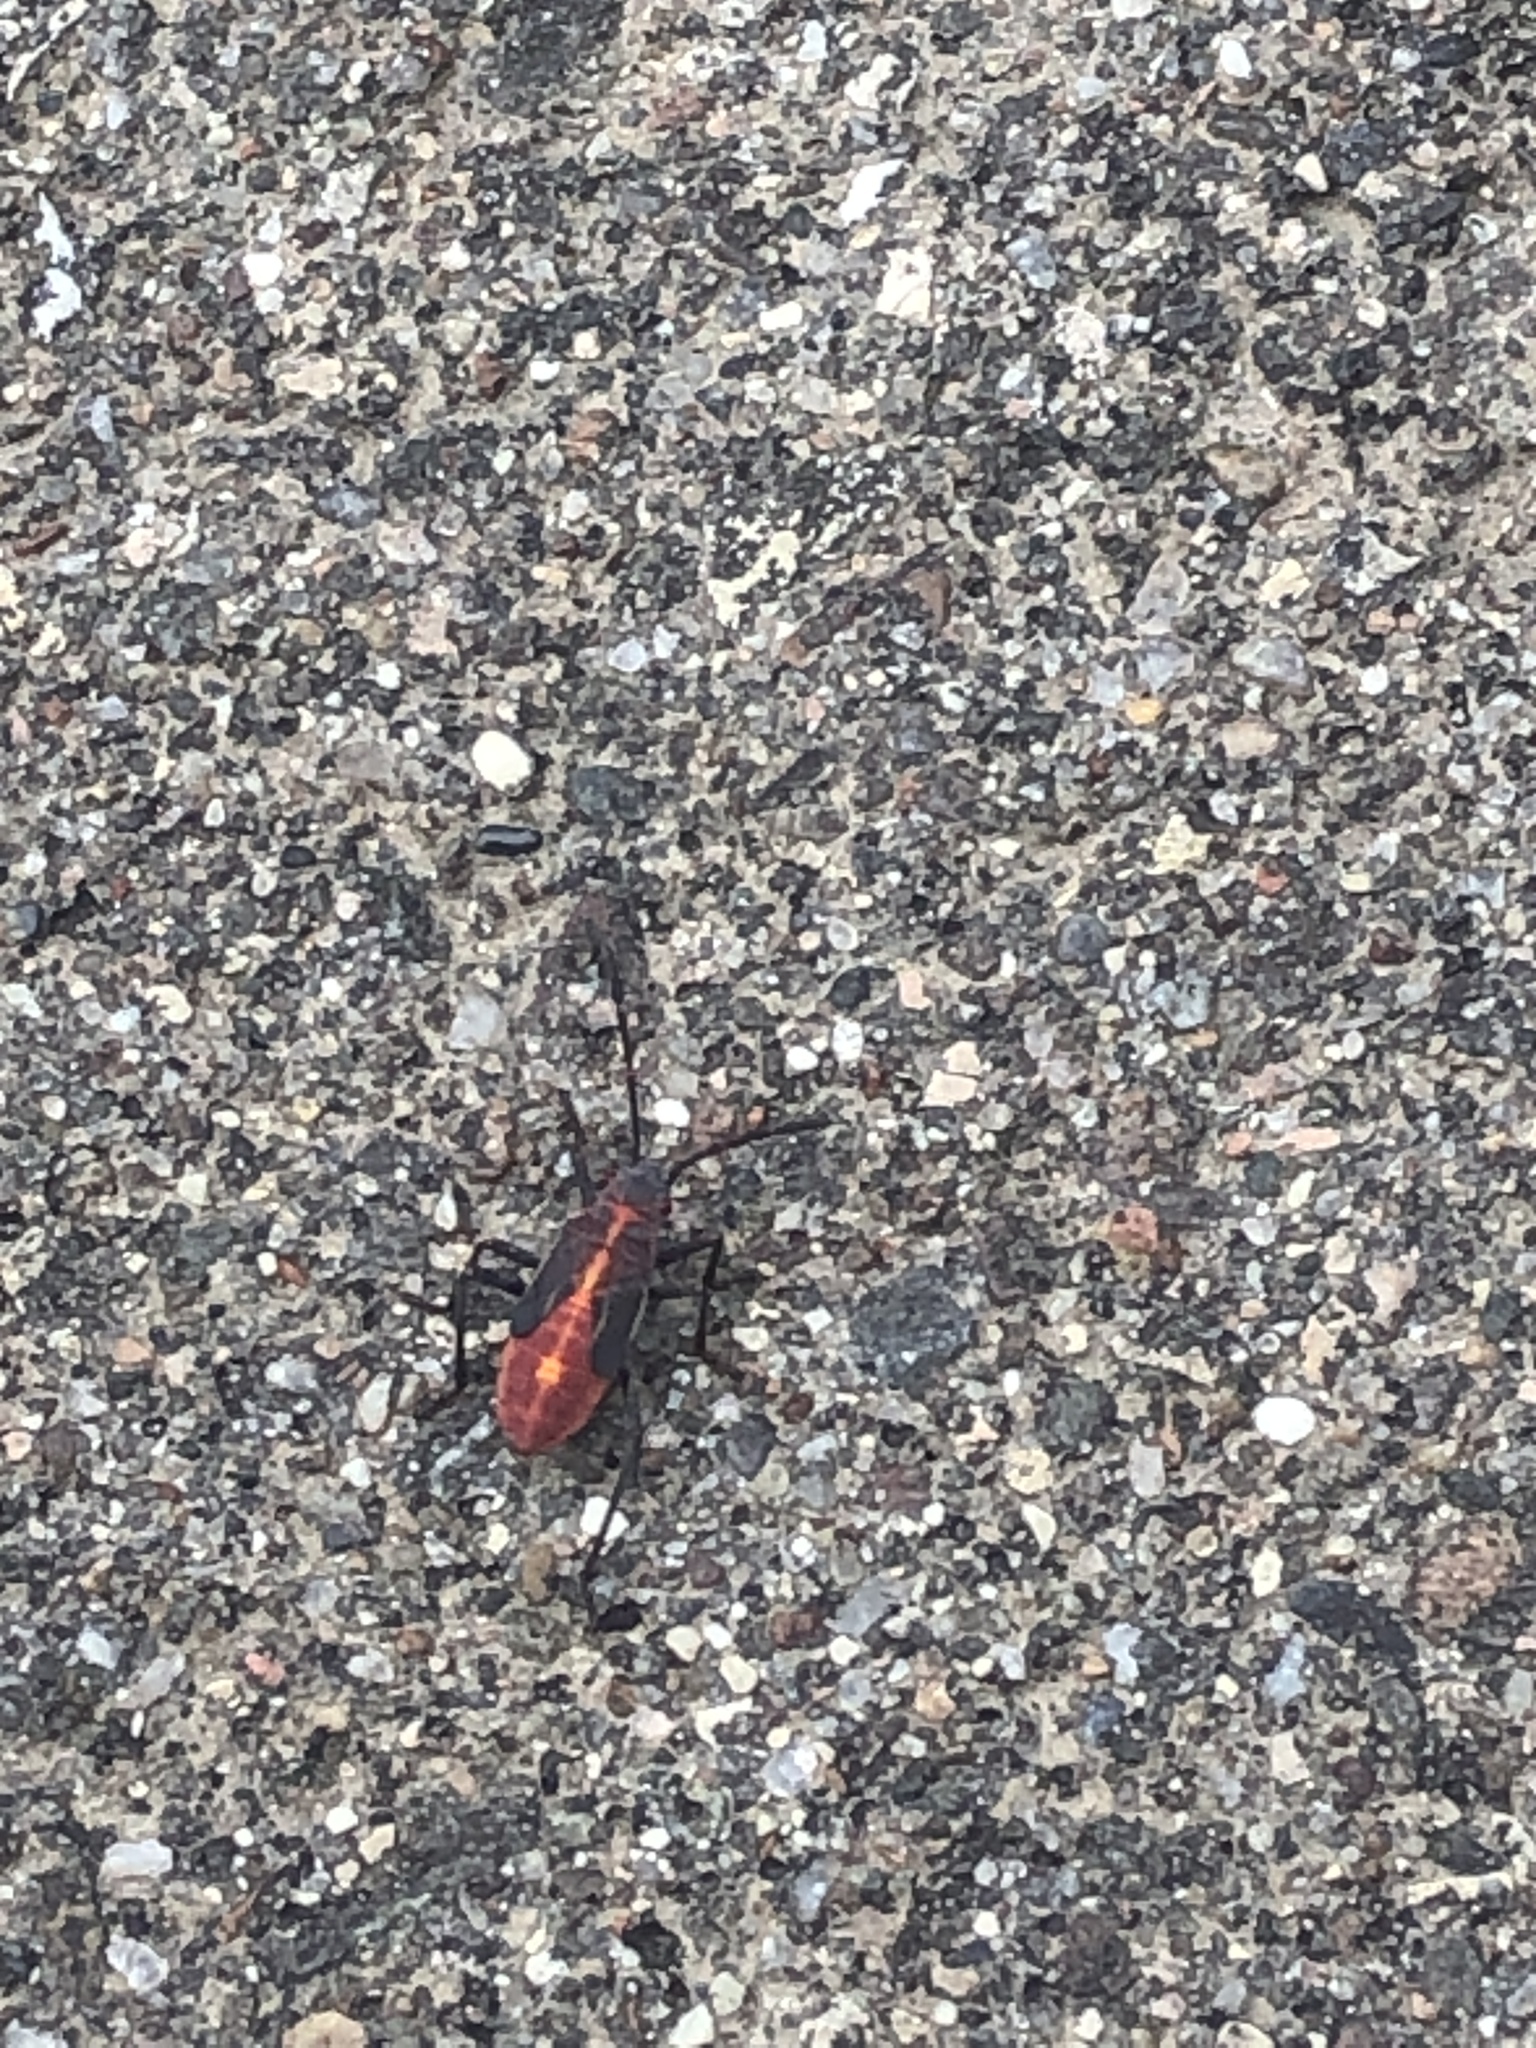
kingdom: Animalia
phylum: Arthropoda
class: Insecta
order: Hemiptera
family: Rhopalidae
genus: Boisea
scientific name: Boisea trivittata
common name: Boxelder bug
